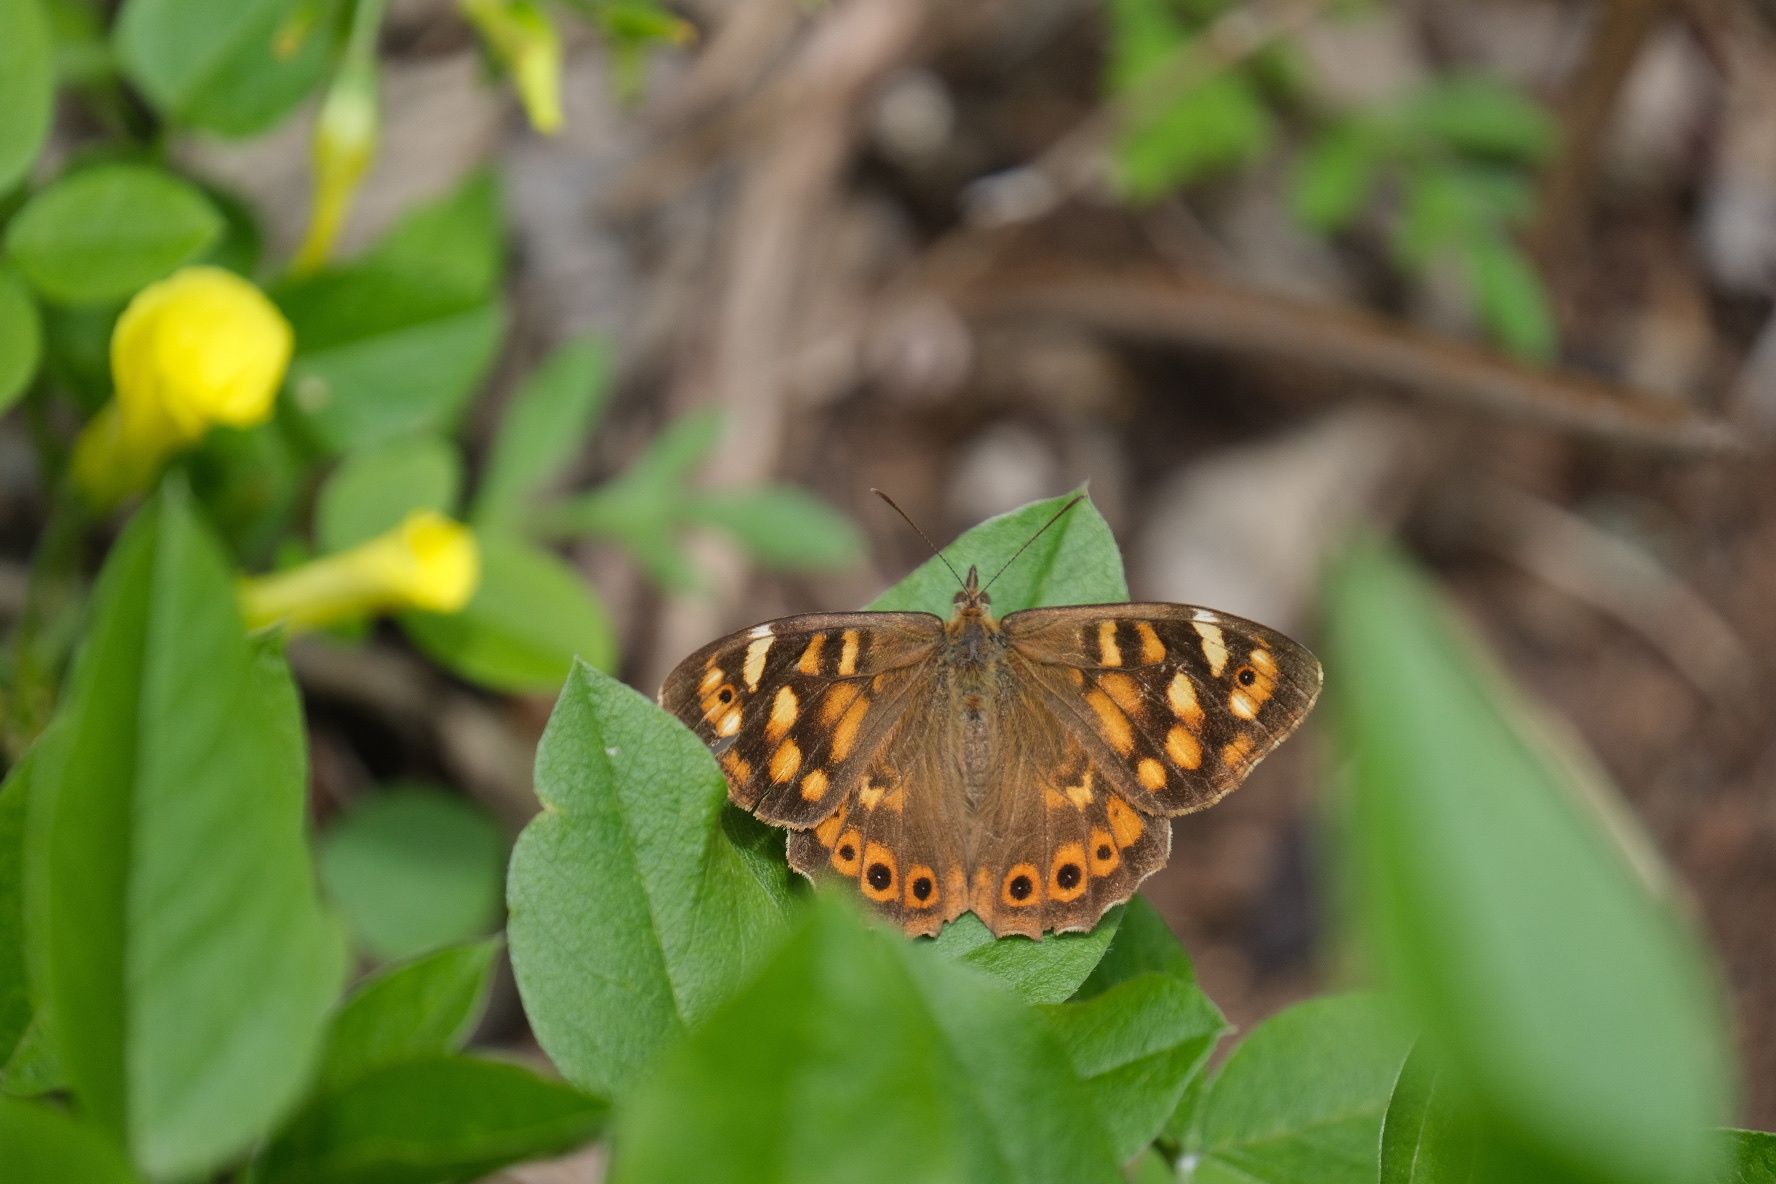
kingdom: Animalia
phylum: Arthropoda
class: Insecta
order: Lepidoptera
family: Nymphalidae
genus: Pararge
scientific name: Pararge aegeria
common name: Speckled wood
